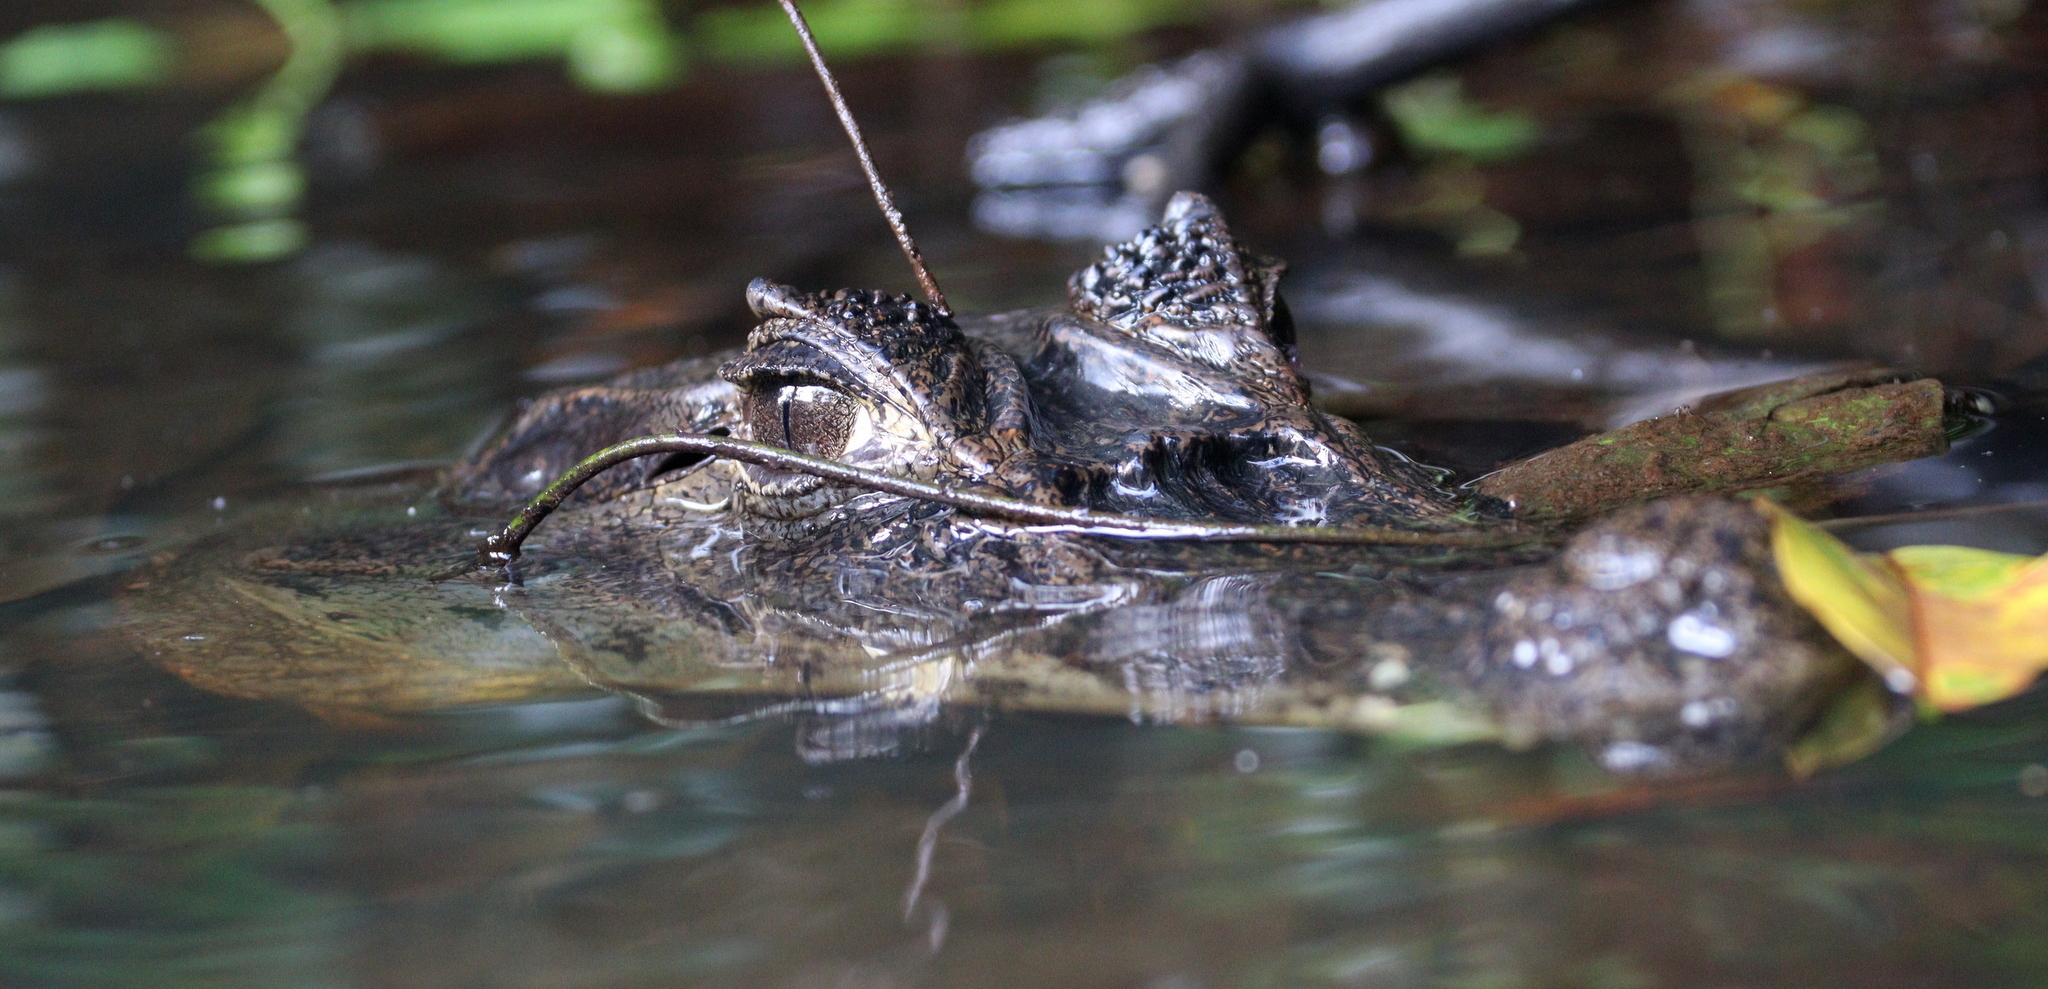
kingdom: Animalia
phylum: Chordata
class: Crocodylia
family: Alligatoridae
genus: Caiman
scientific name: Caiman crocodilus
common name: Common caiman
